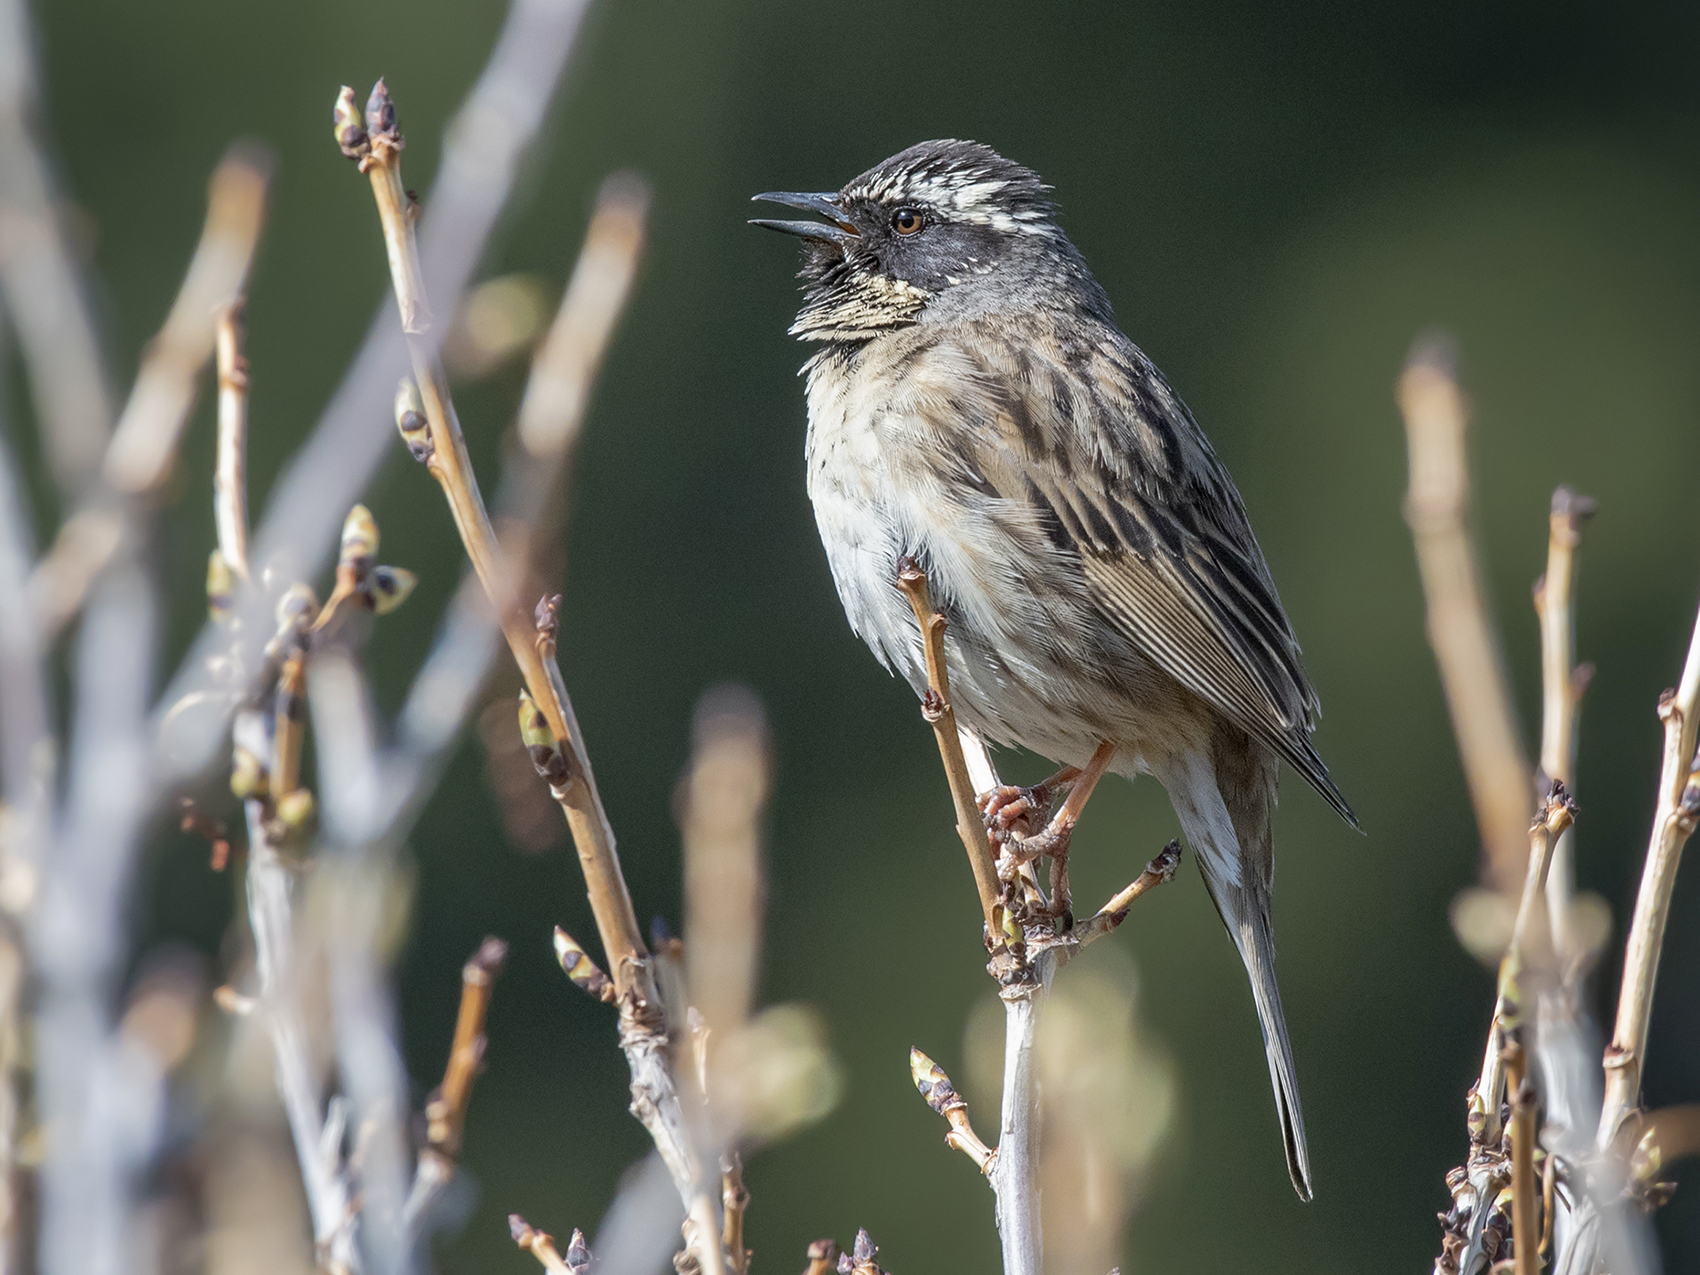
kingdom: Animalia
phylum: Chordata
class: Aves
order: Passeriformes
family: Prunellidae
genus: Prunella
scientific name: Prunella atrogularis
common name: Black-throated accentor
